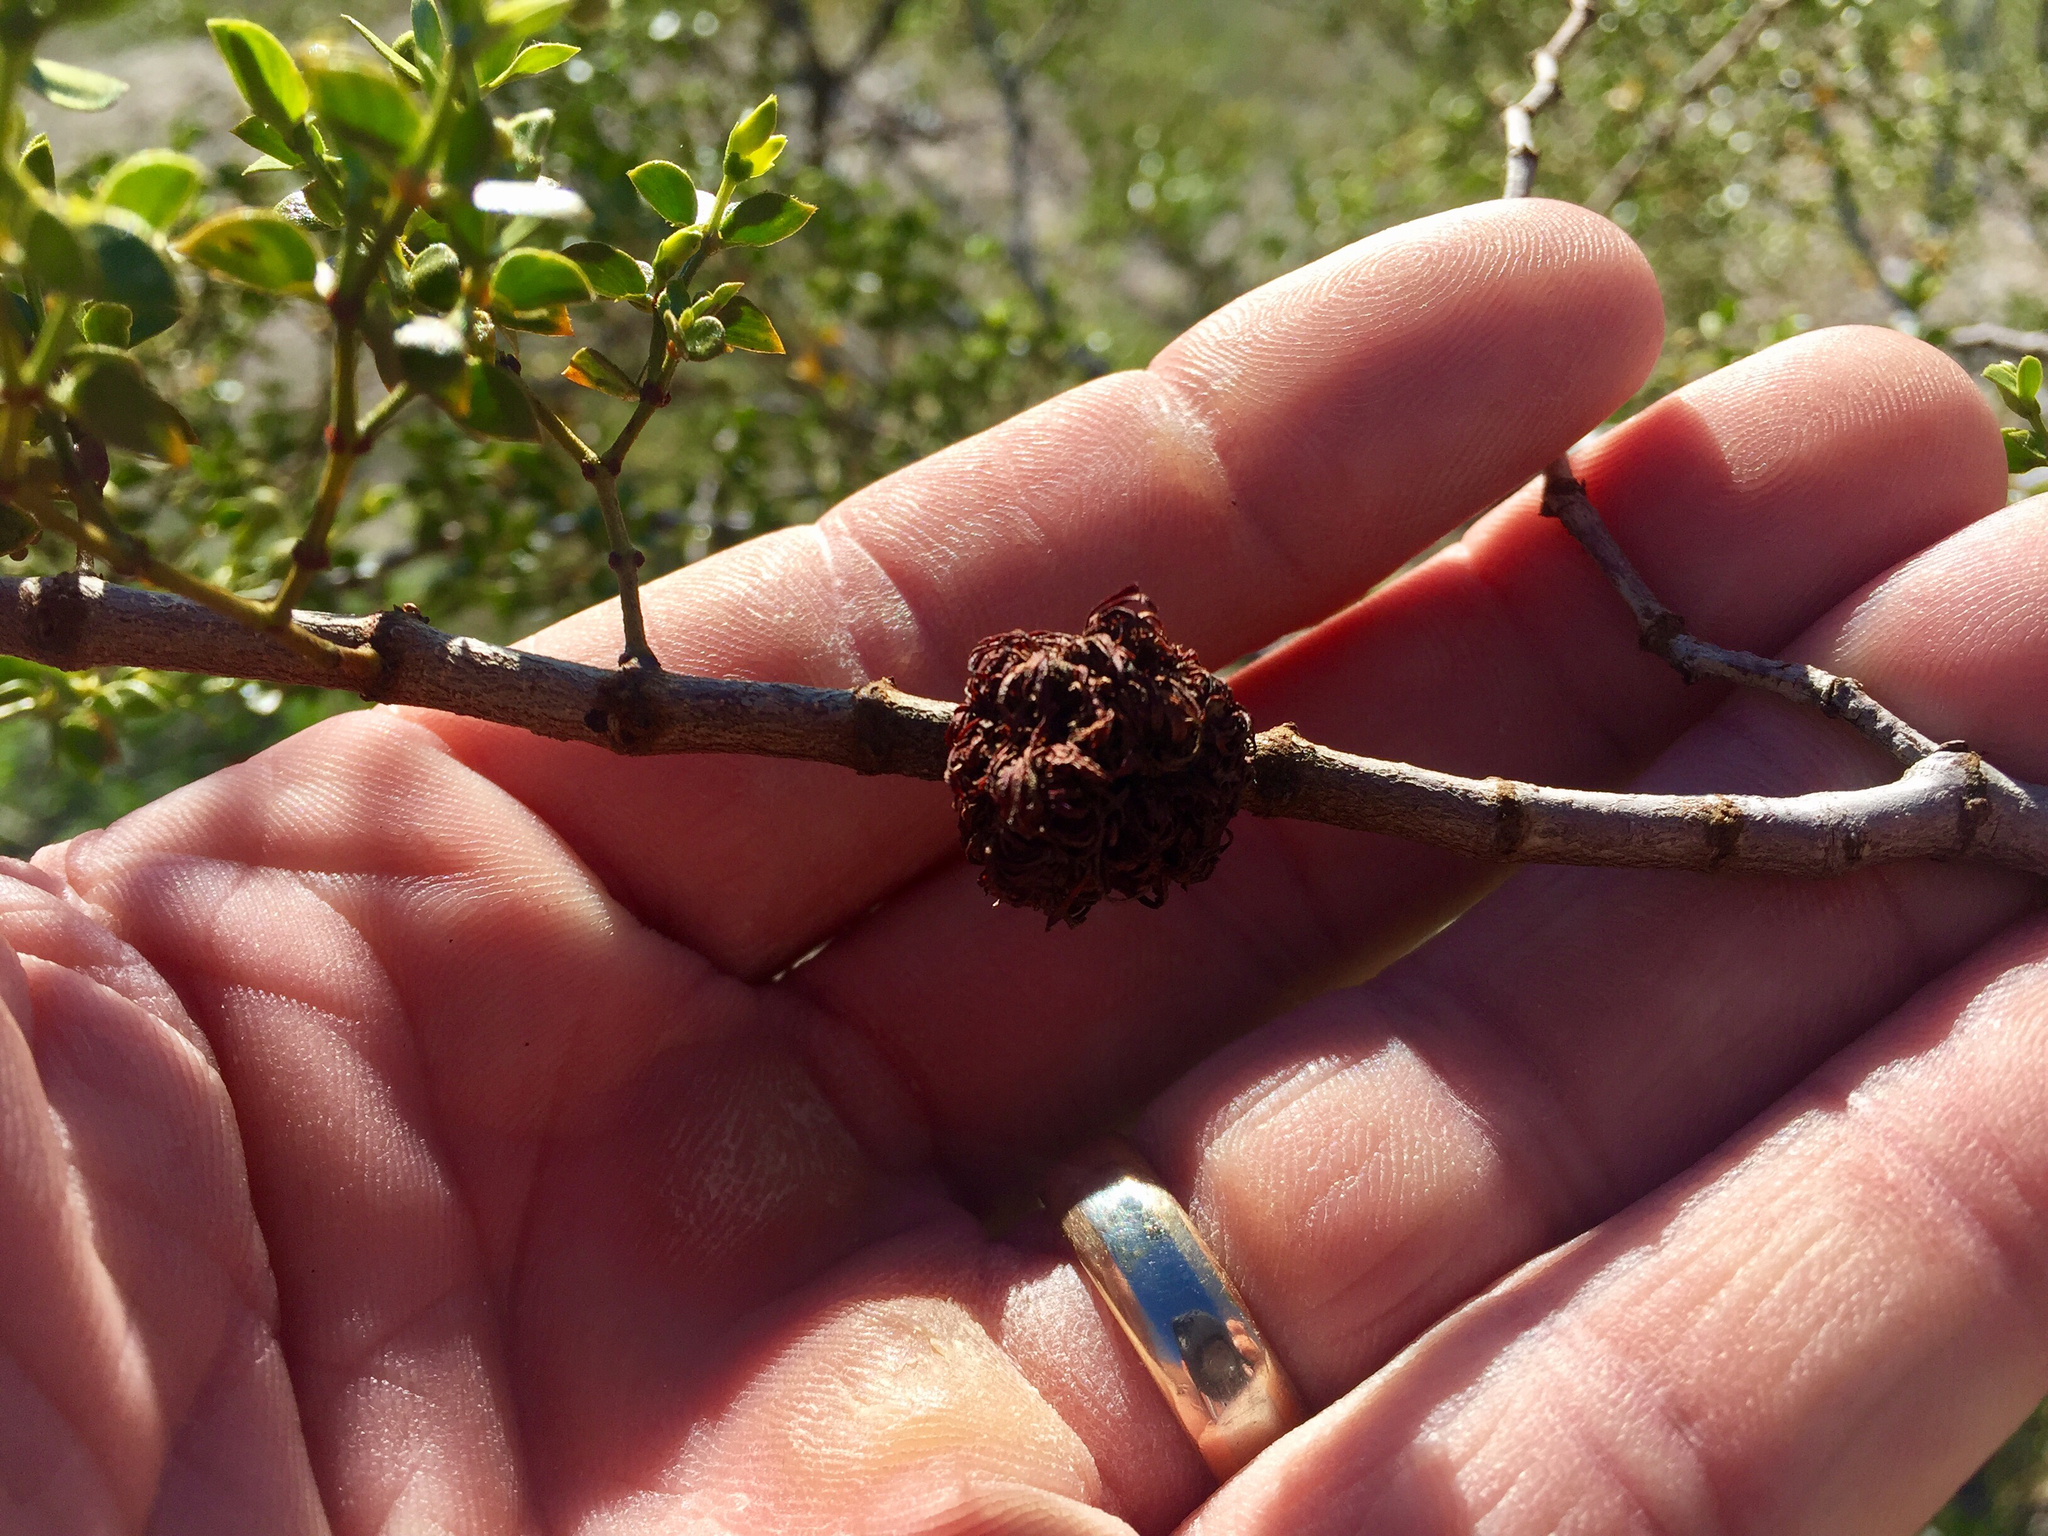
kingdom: Animalia
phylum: Arthropoda
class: Insecta
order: Diptera
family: Cecidomyiidae
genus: Asphondylia
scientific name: Asphondylia auripila
